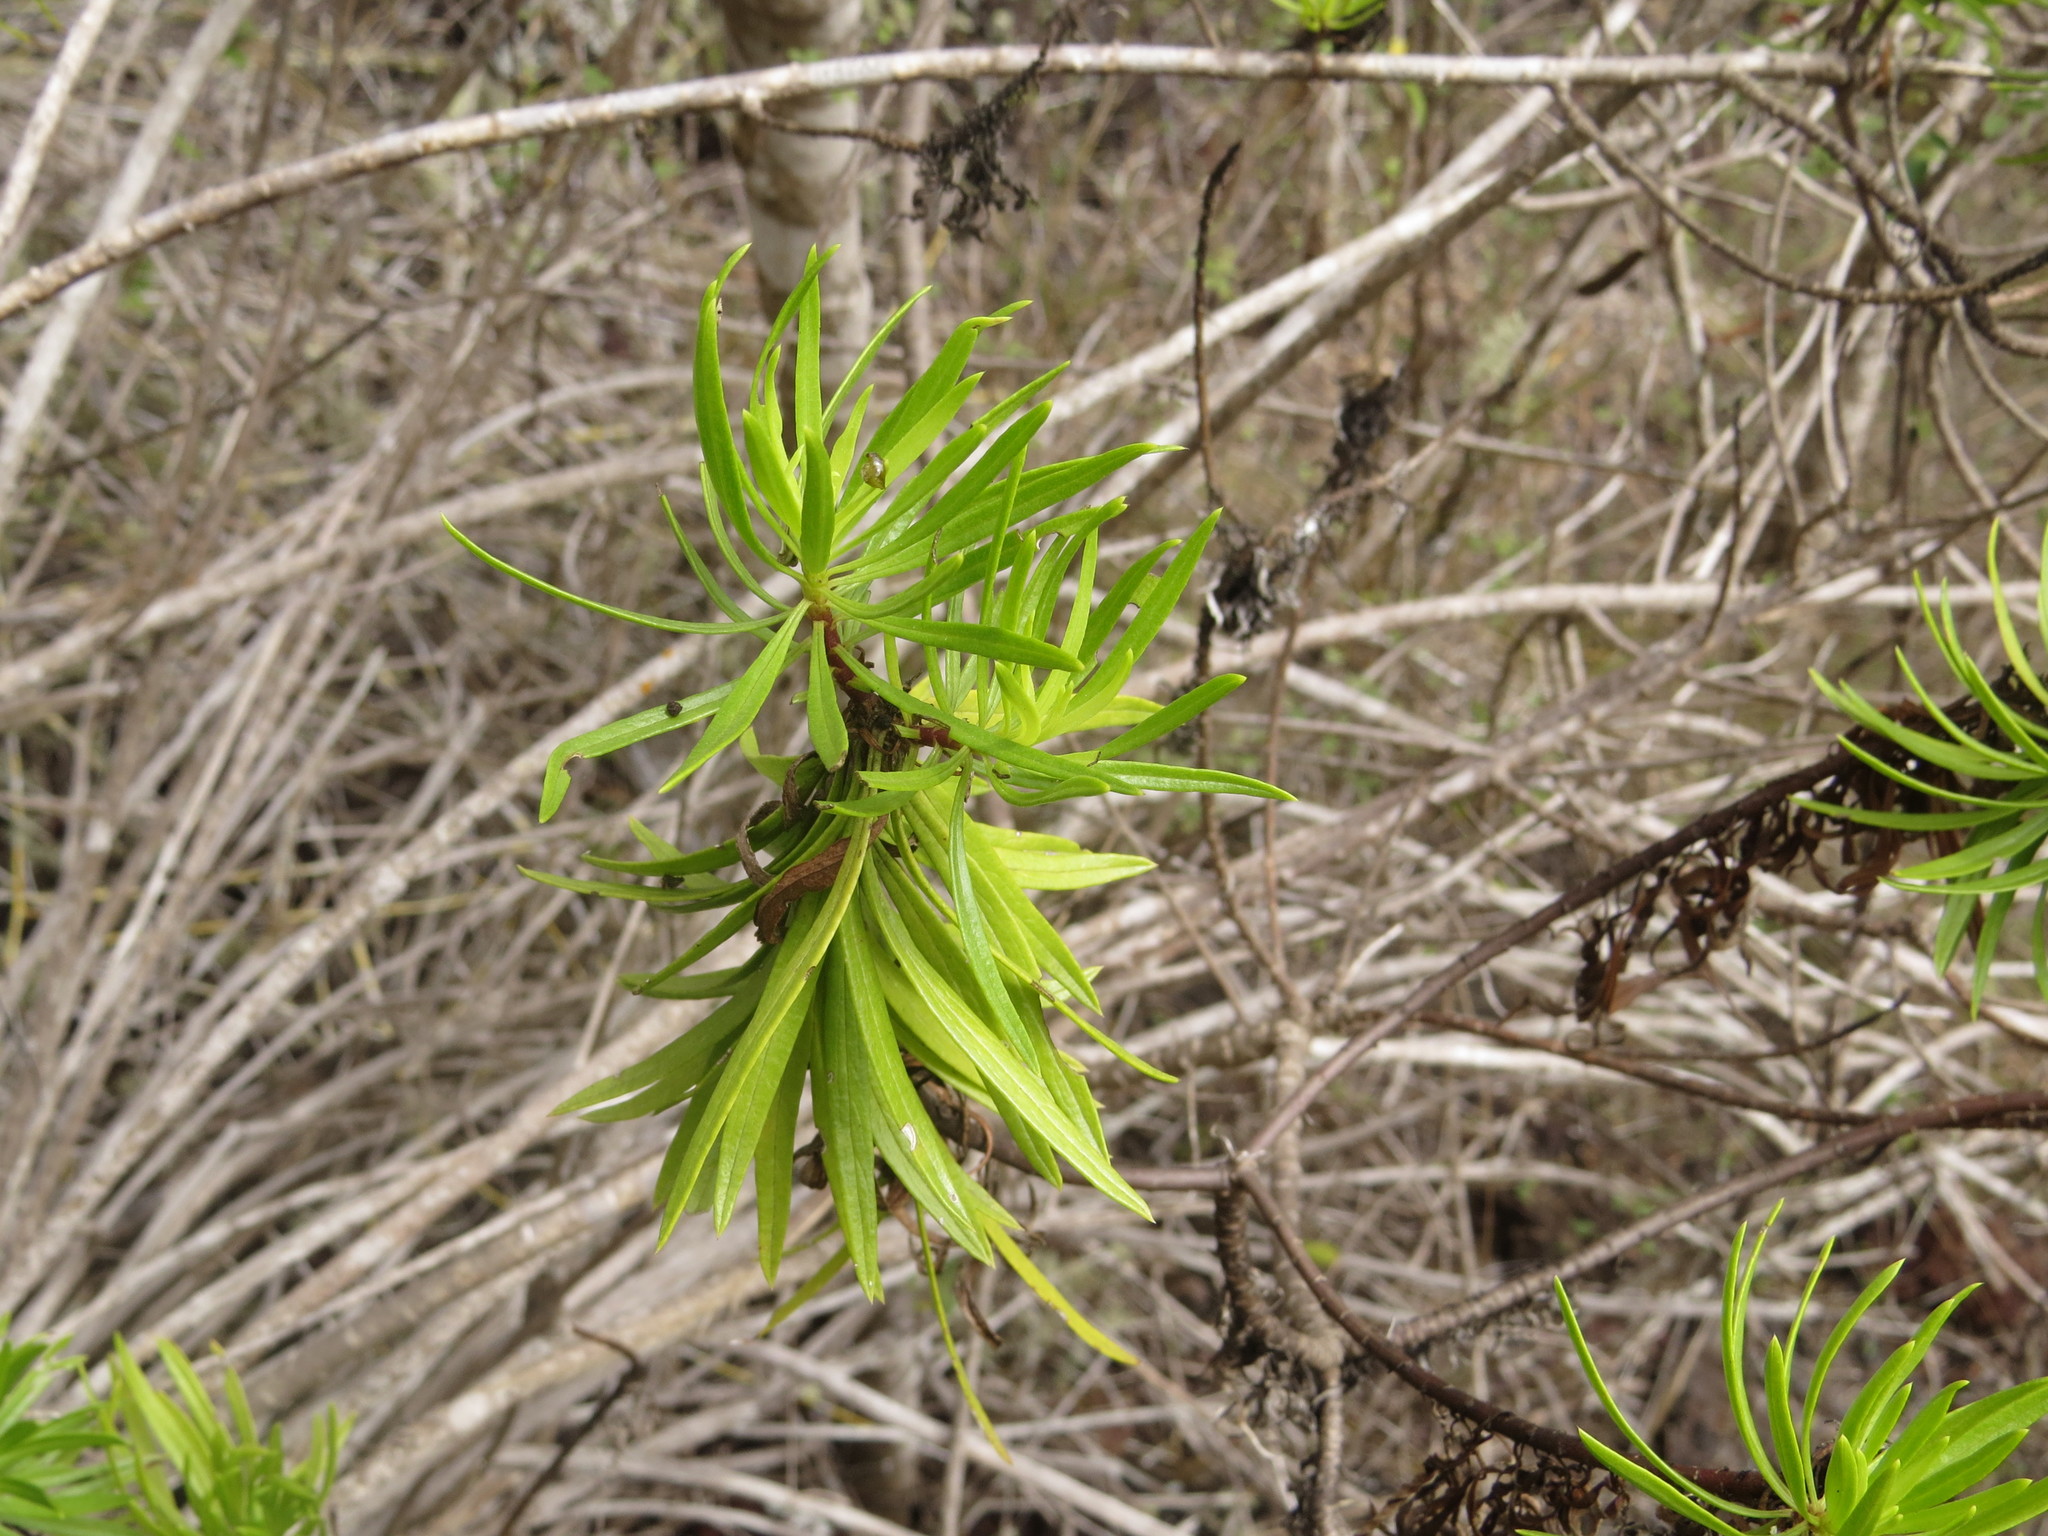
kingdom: Plantae
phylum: Tracheophyta
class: Magnoliopsida
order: Asterales
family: Asteraceae
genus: Erigeron
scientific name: Erigeron tenuifolius
